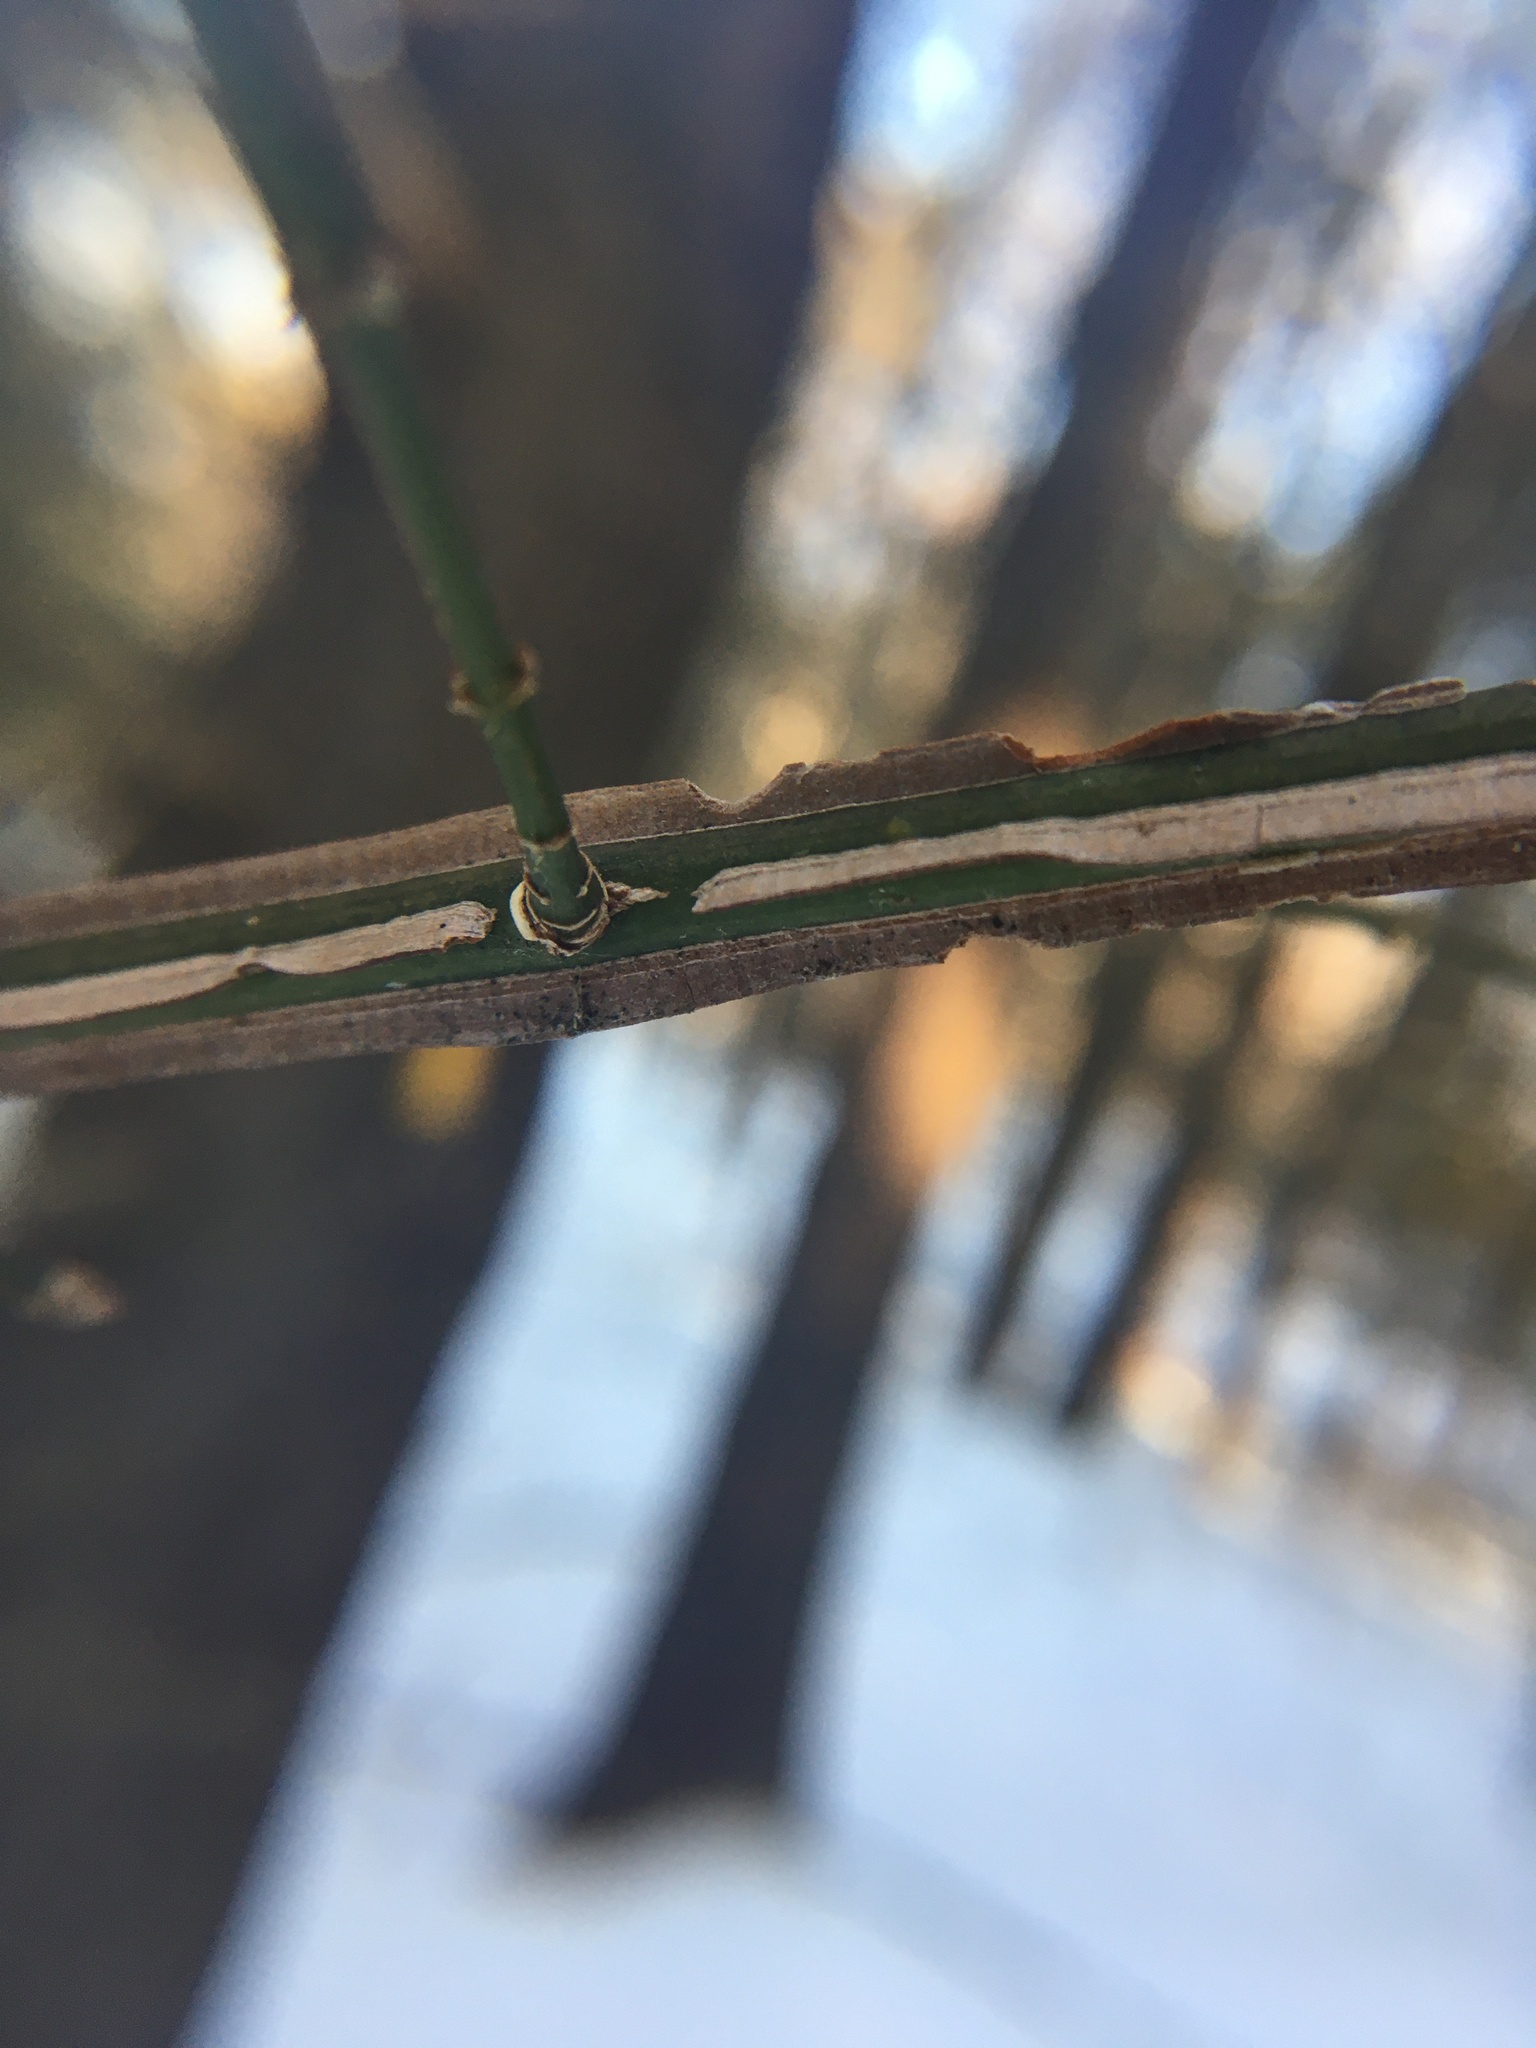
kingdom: Plantae
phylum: Tracheophyta
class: Magnoliopsida
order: Celastrales
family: Celastraceae
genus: Euonymus
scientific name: Euonymus alatus
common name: Winged euonymus
